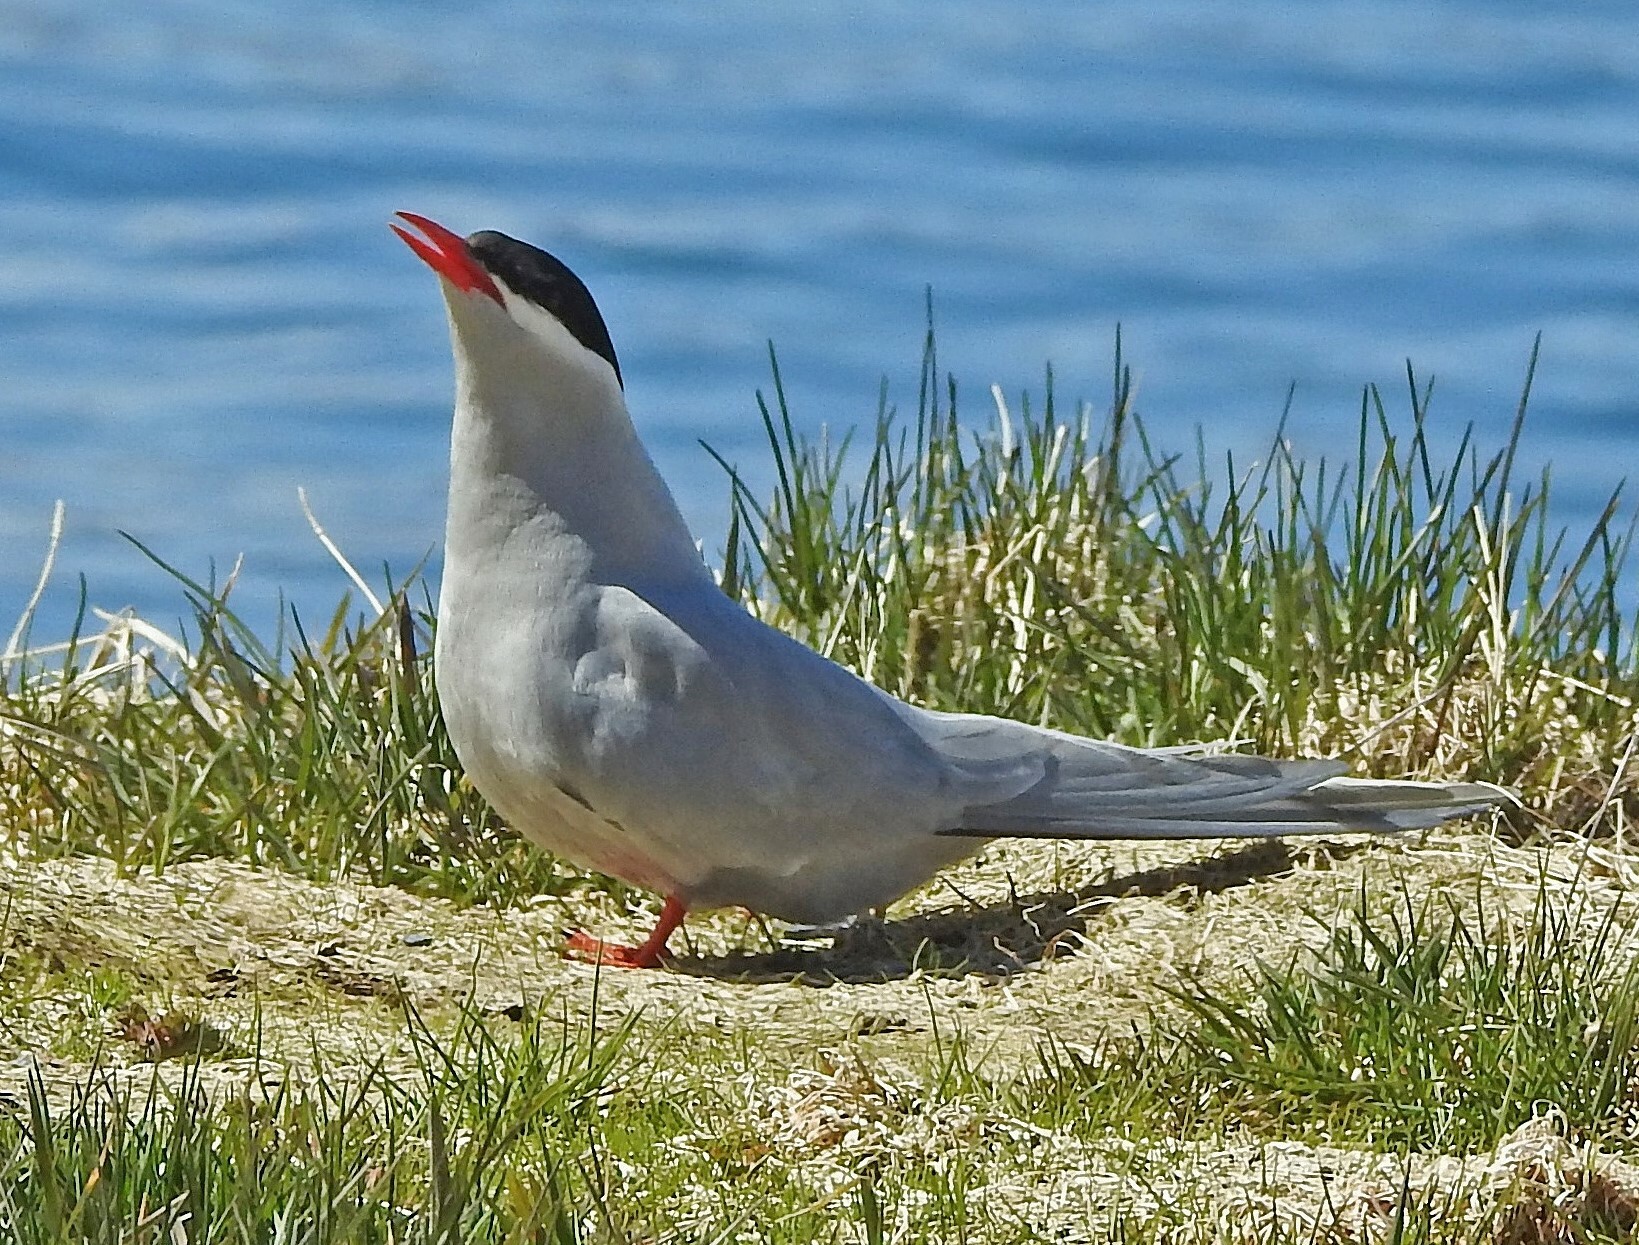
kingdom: Animalia
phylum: Chordata
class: Aves
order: Charadriiformes
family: Laridae
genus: Sterna
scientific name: Sterna vittata
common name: Antarctic tern
